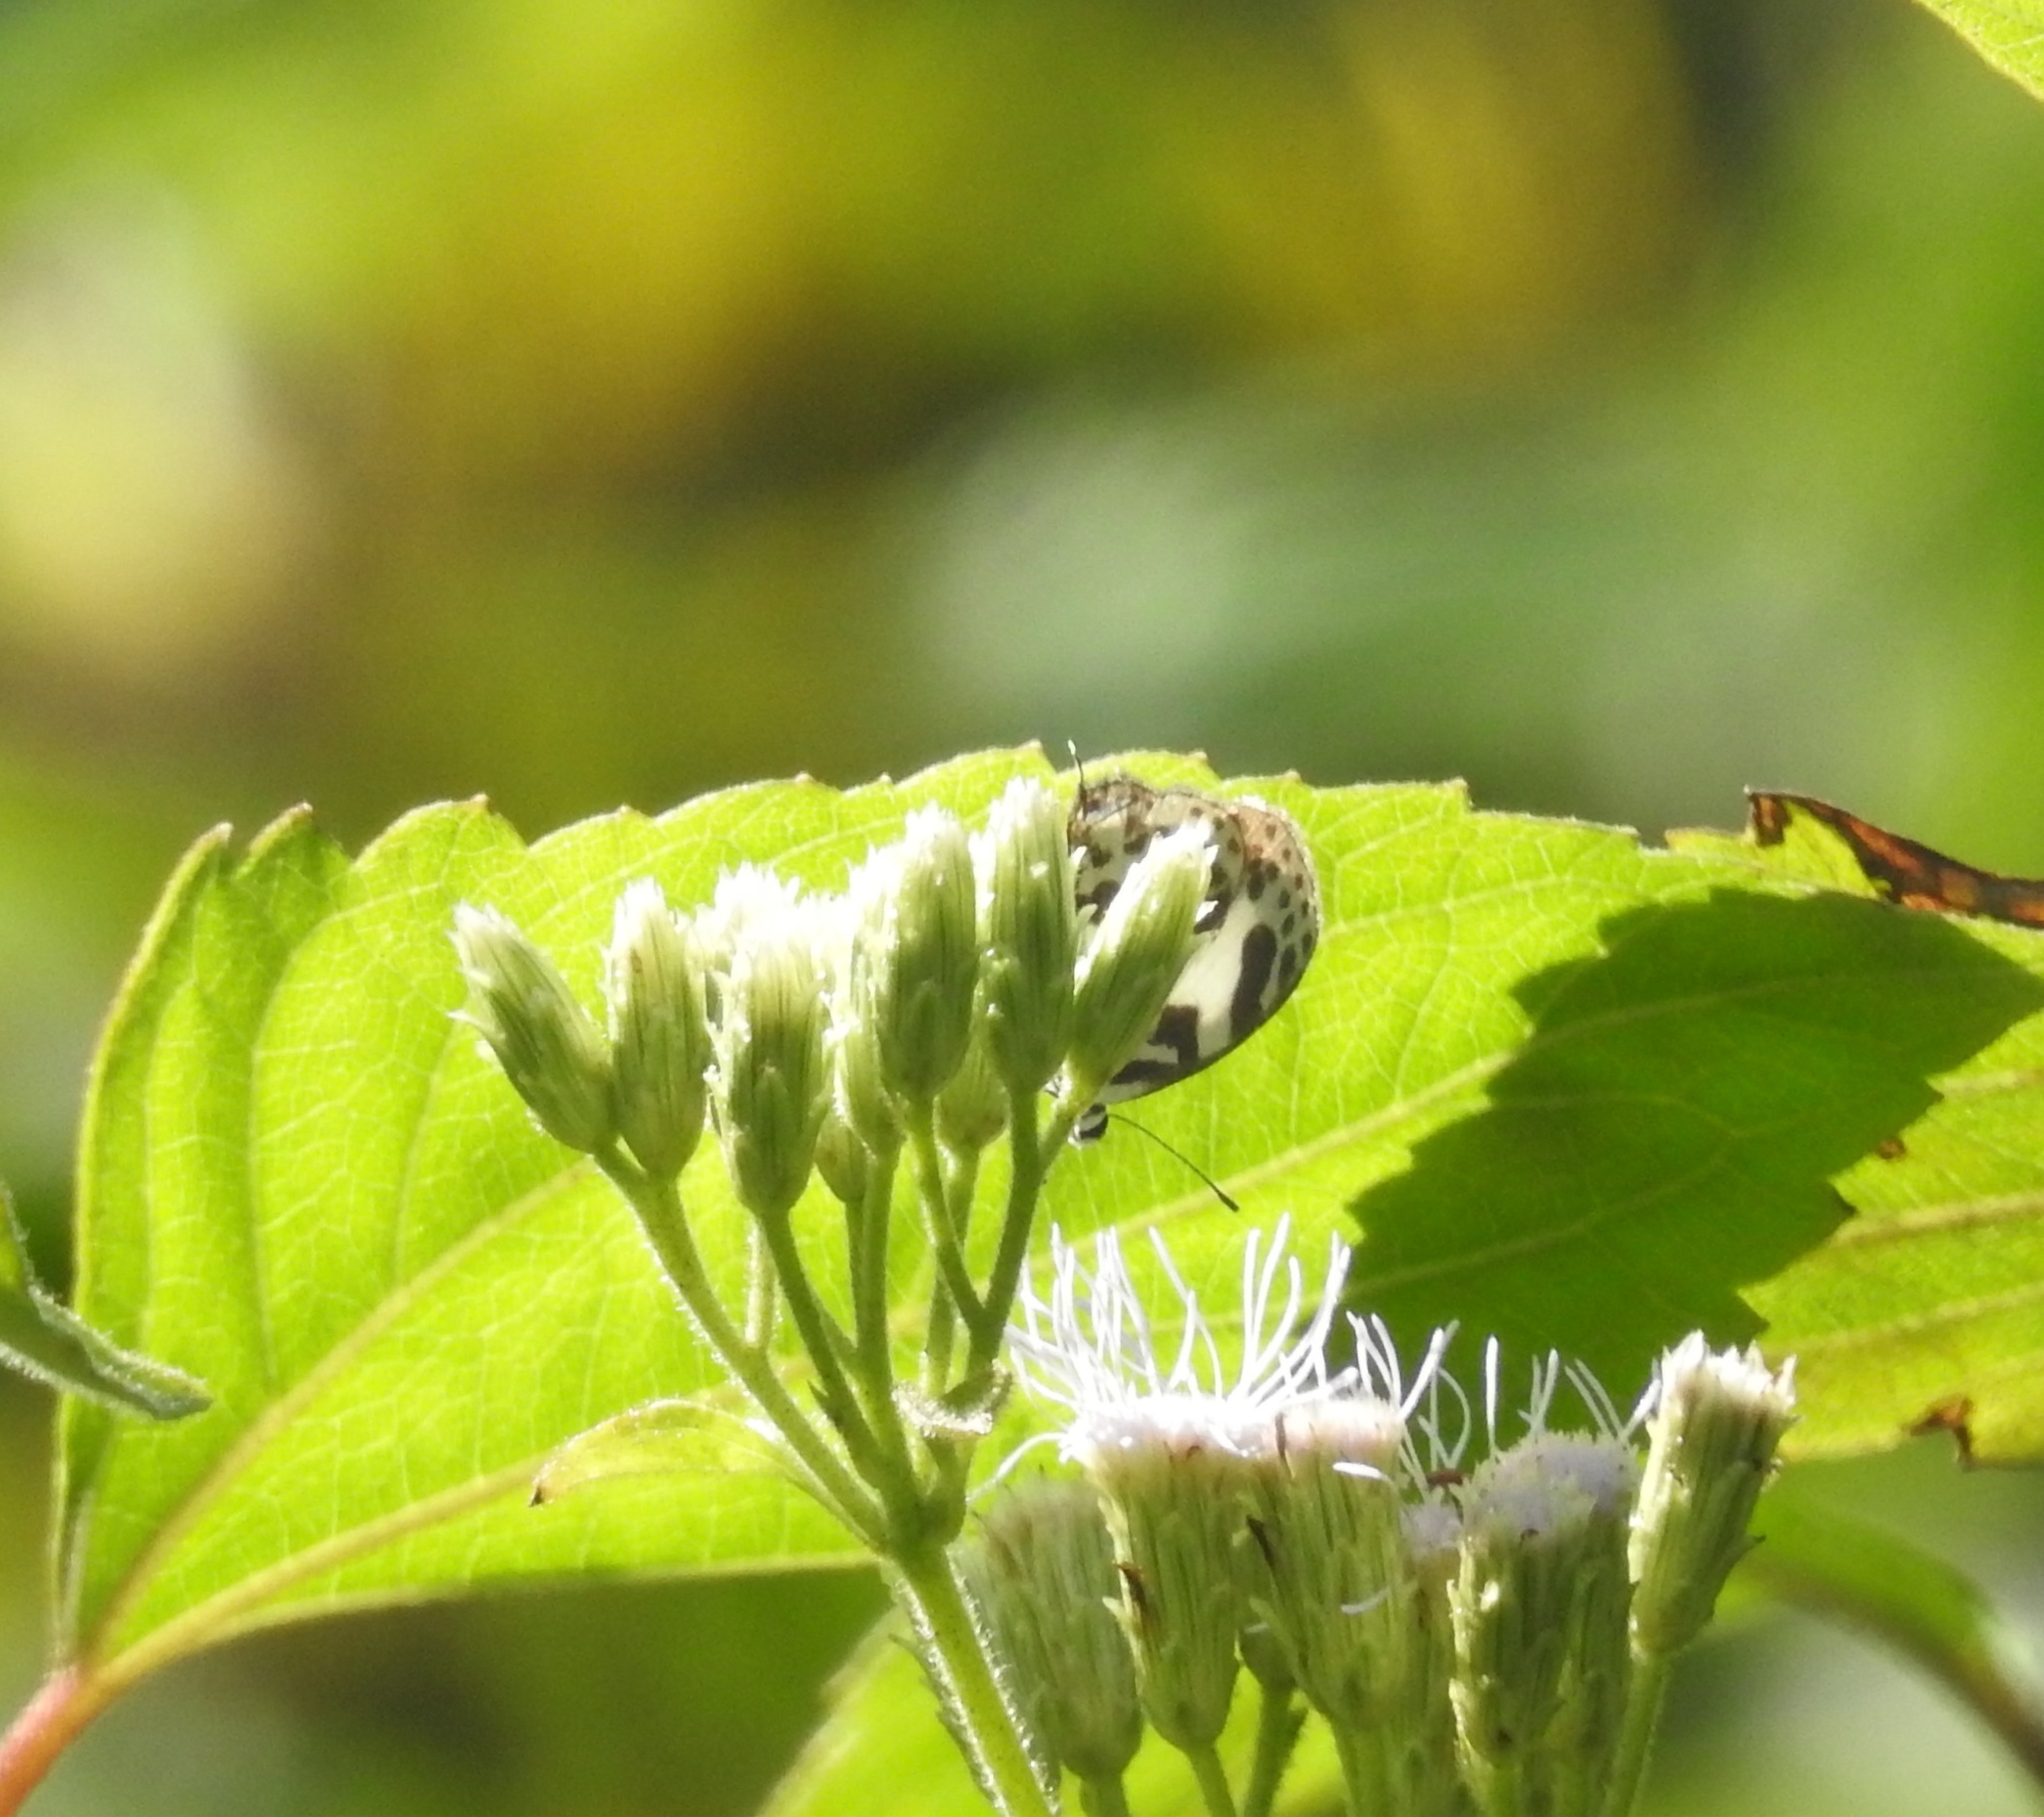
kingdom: Animalia
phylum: Arthropoda
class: Insecta
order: Lepidoptera
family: Lycaenidae
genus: Discolampa
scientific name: Discolampa ethion
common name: Banded blue pierrot
